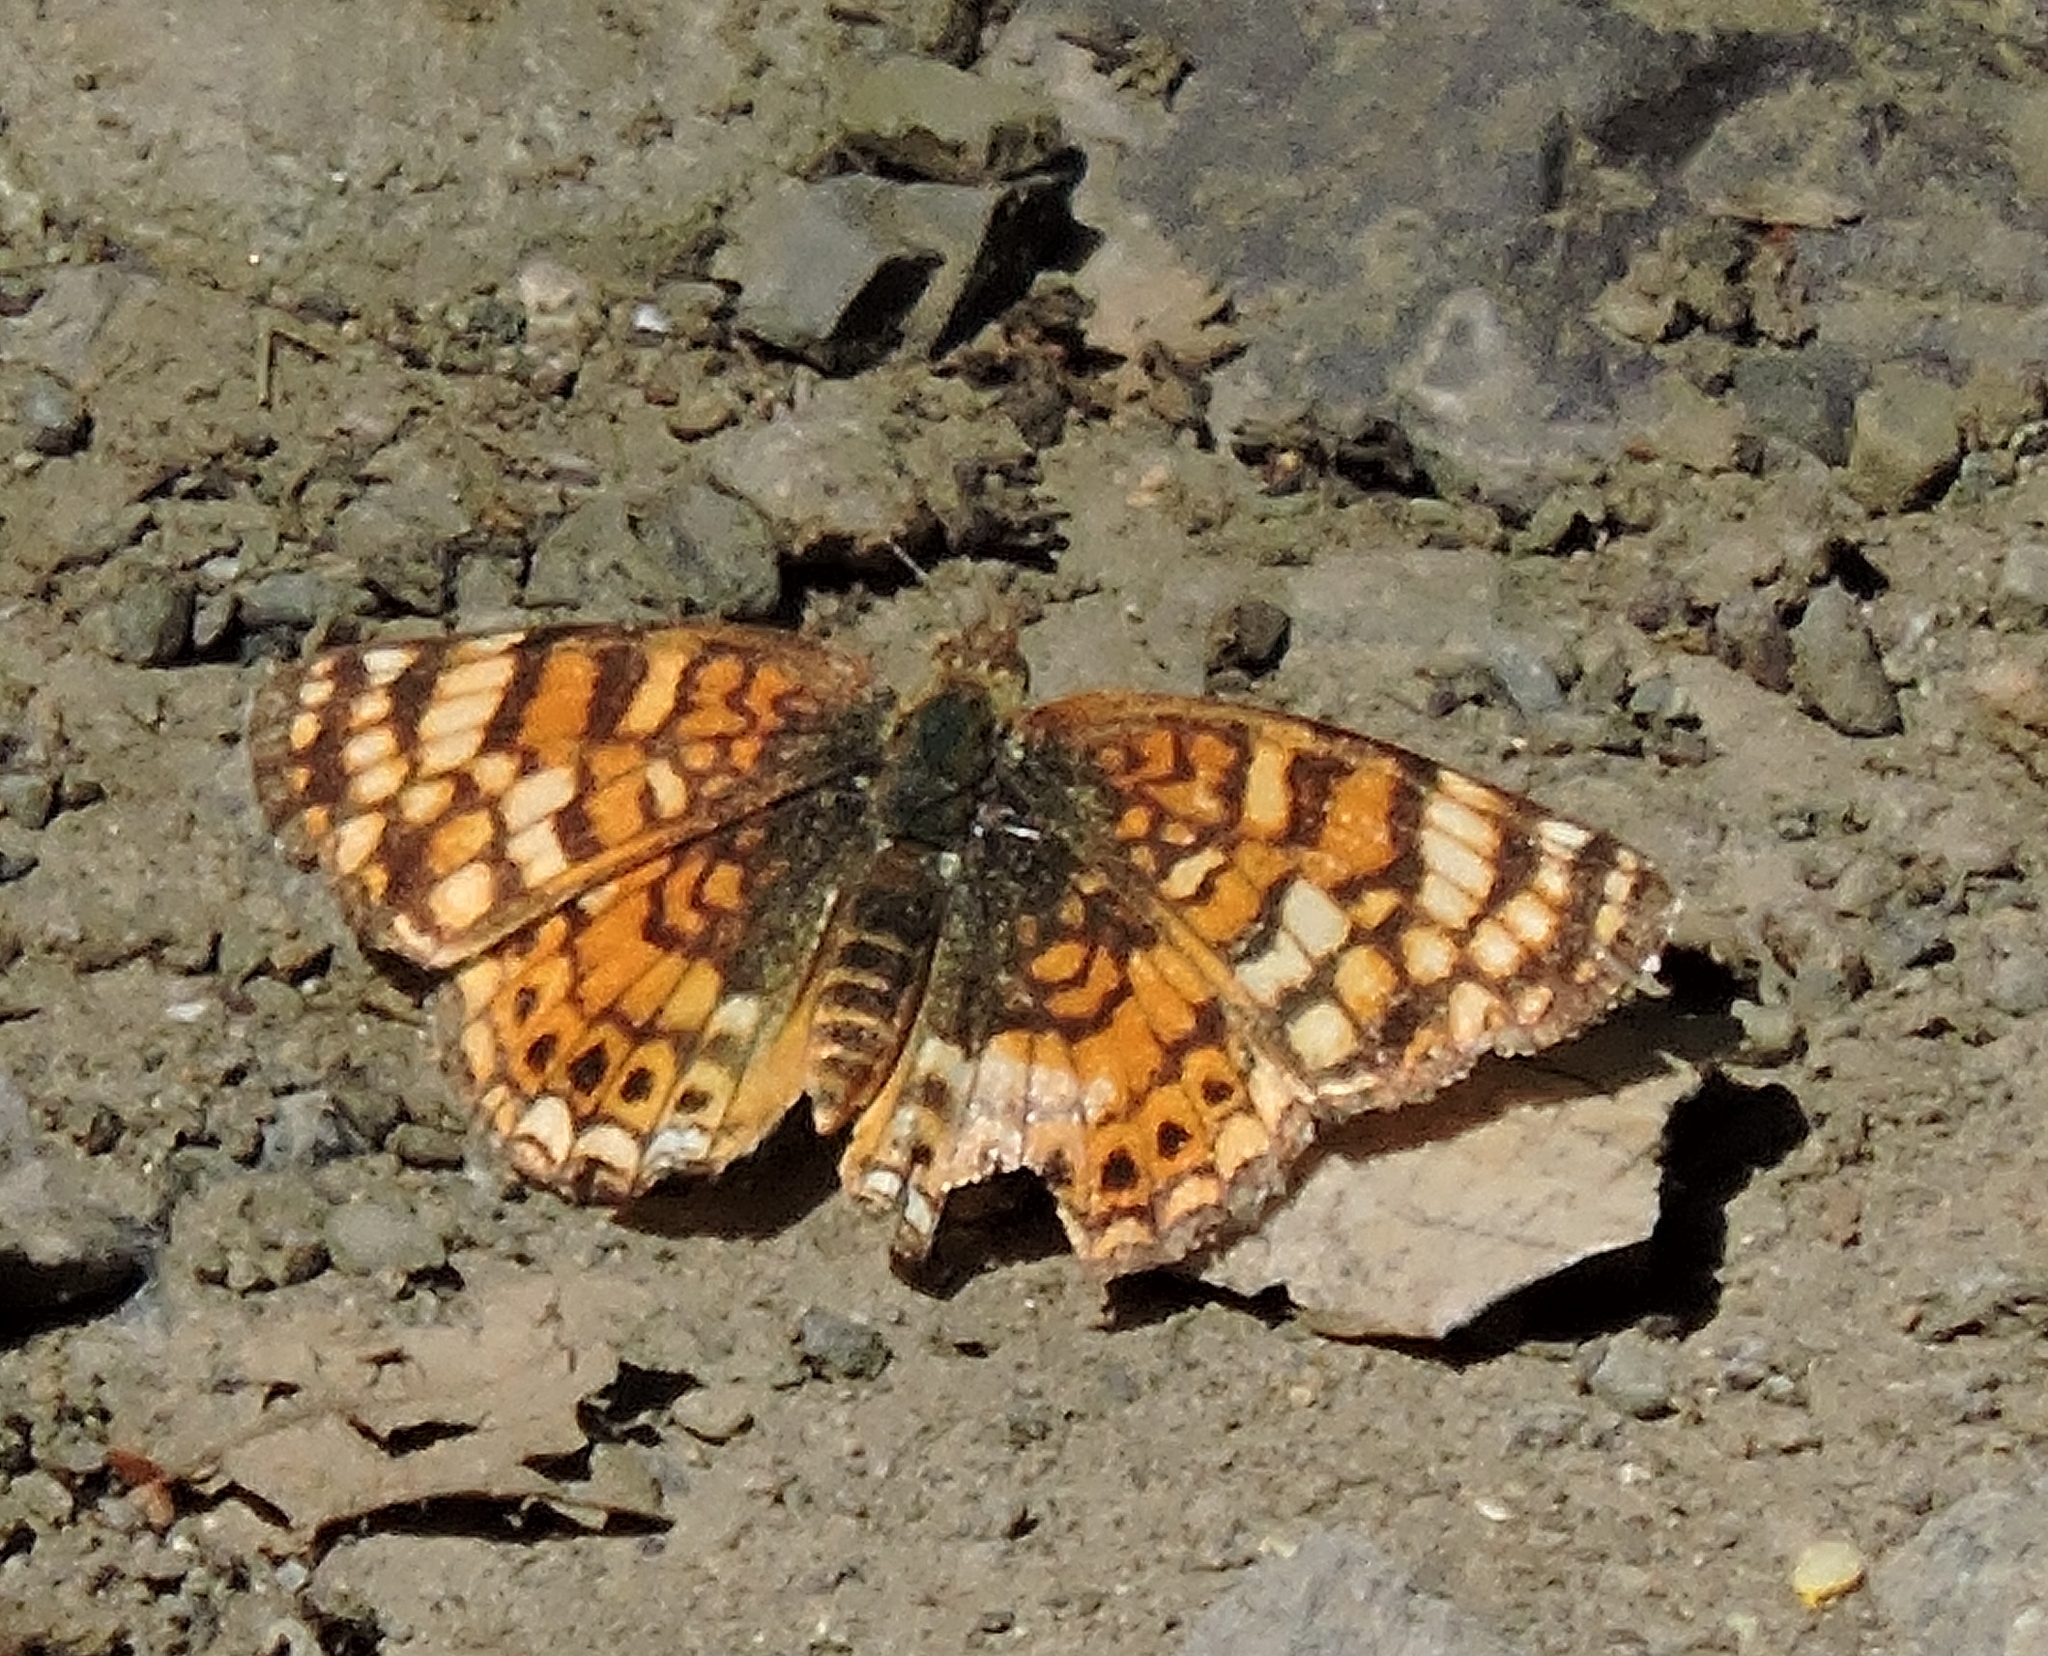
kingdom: Animalia
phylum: Arthropoda
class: Insecta
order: Lepidoptera
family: Nymphalidae
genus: Eresia
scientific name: Eresia aveyrona
